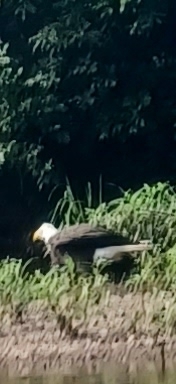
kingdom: Animalia
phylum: Chordata
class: Aves
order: Accipitriformes
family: Accipitridae
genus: Haliaeetus
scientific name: Haliaeetus leucocephalus
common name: Bald eagle
